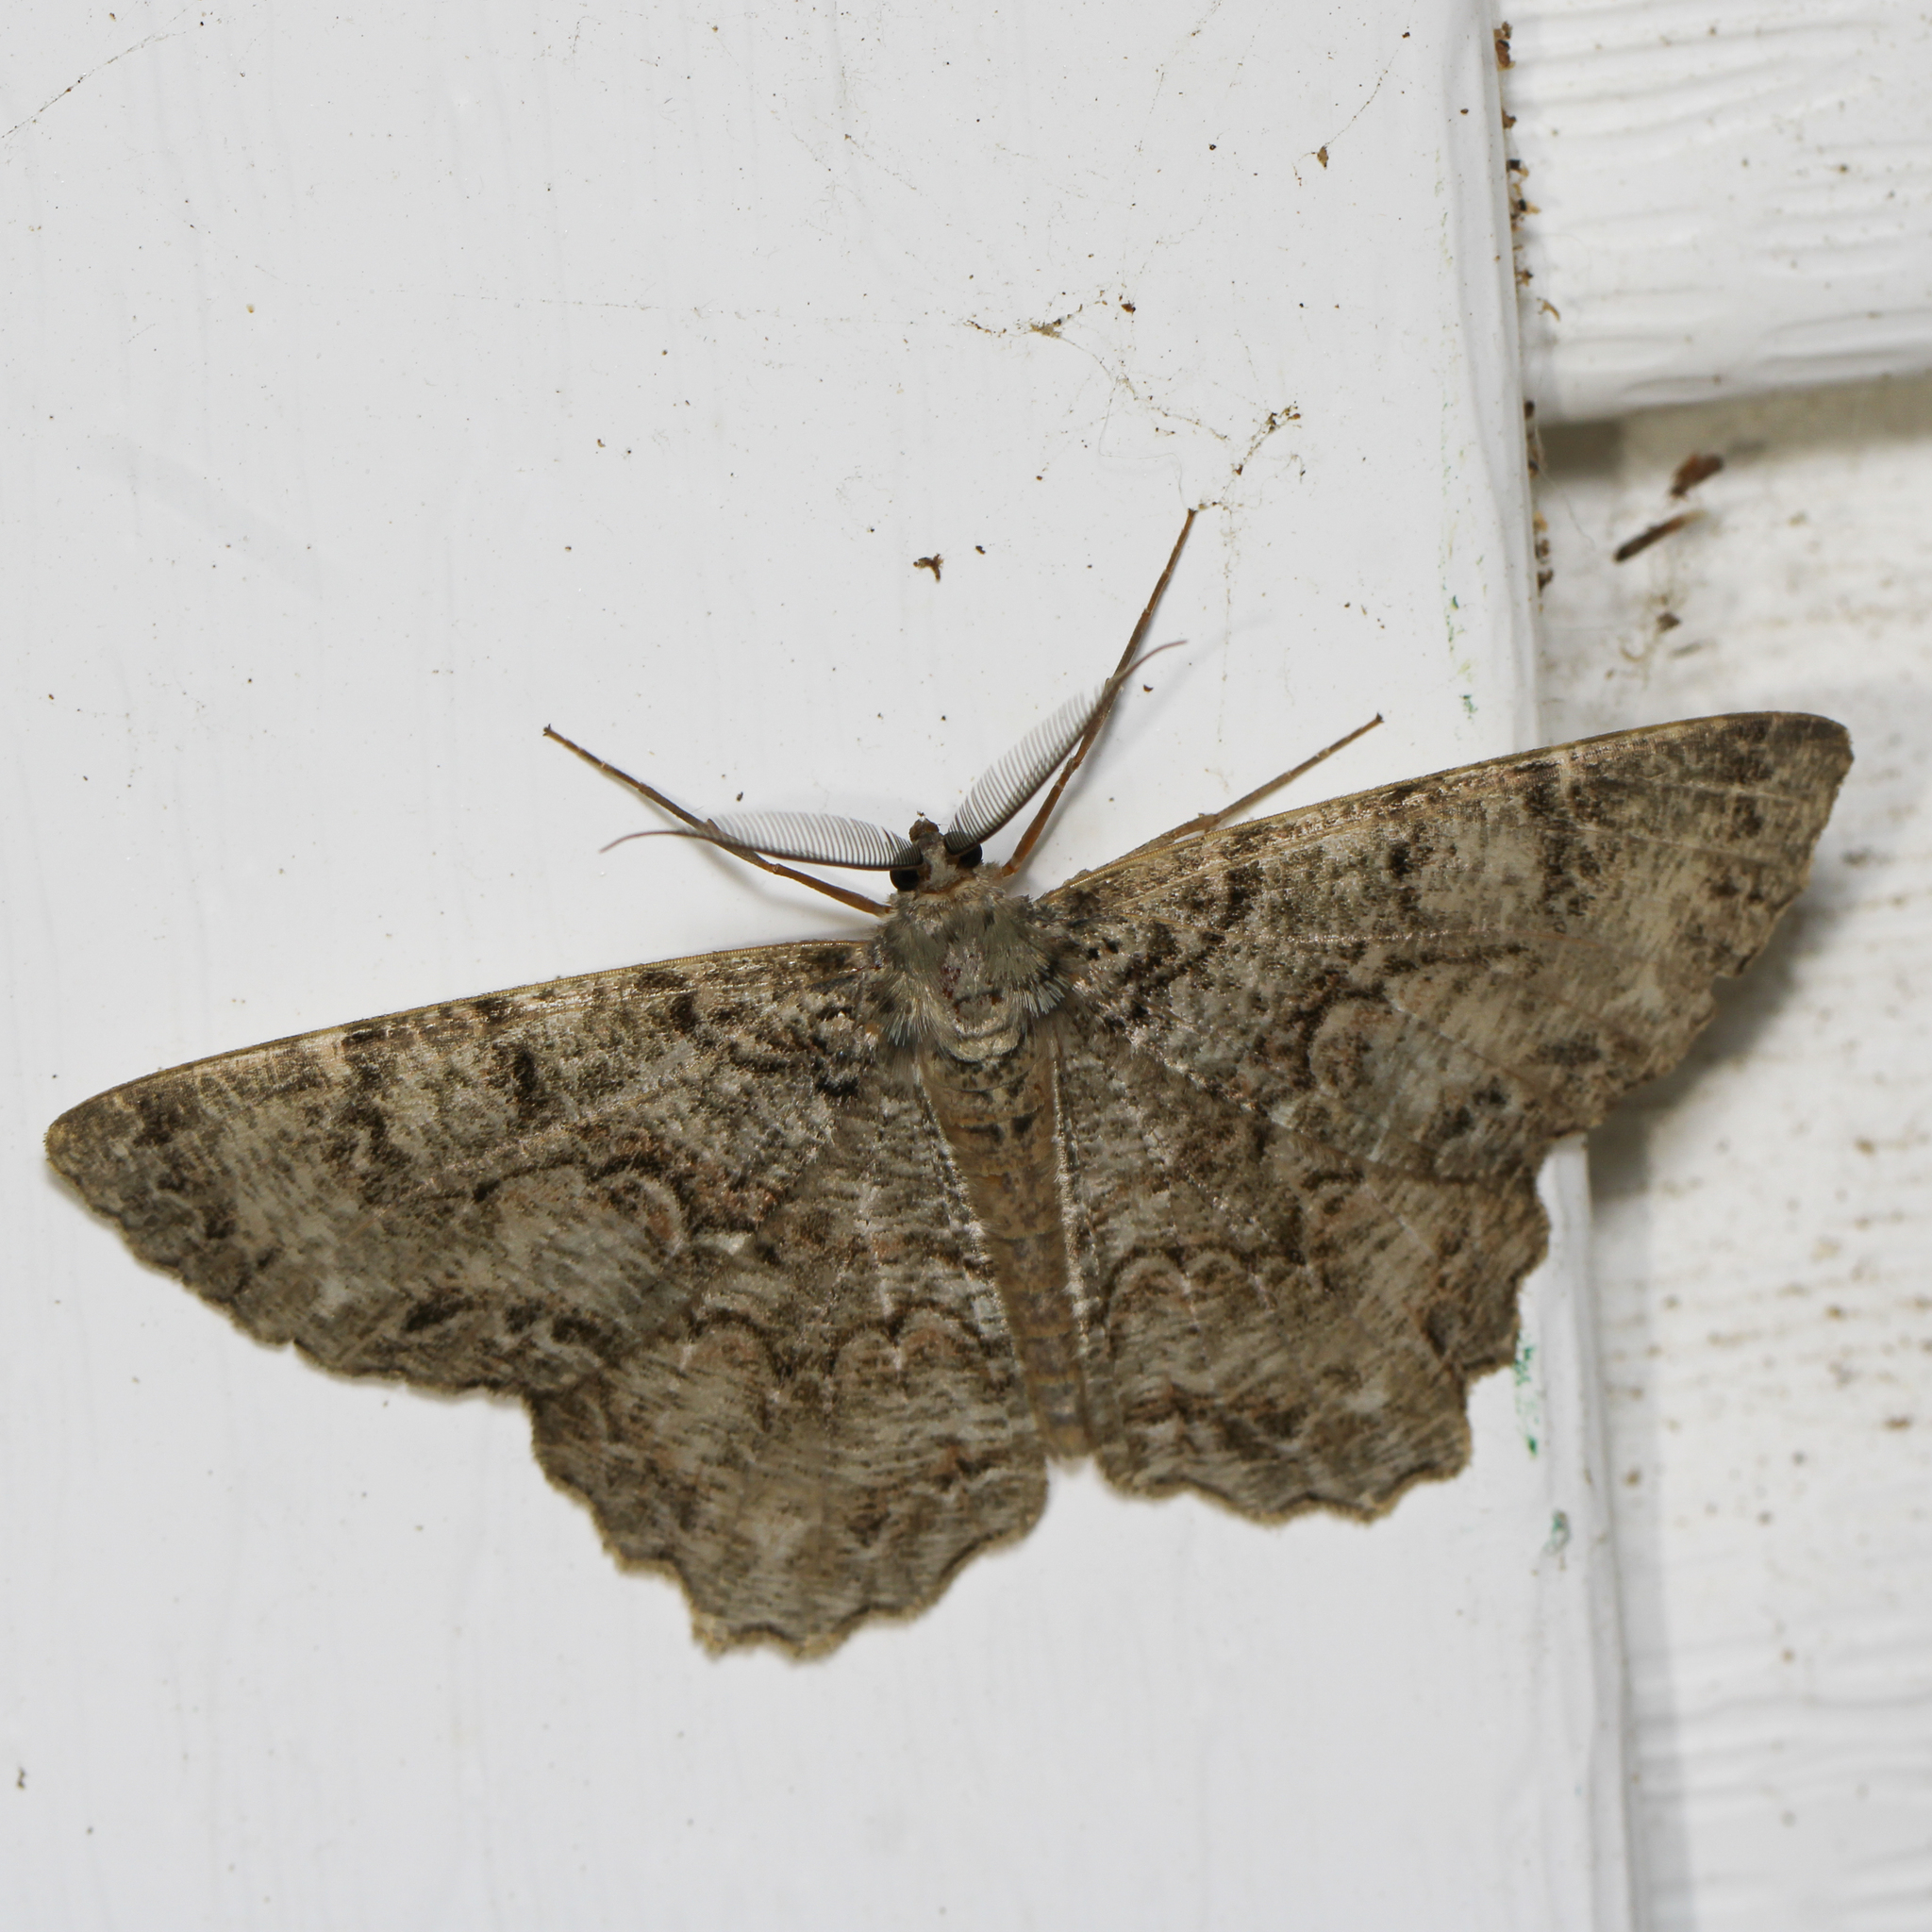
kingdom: Animalia
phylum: Arthropoda
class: Insecta
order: Lepidoptera
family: Geometridae
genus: Epimecis
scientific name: Epimecis hortaria
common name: Tulip-tree beauty
